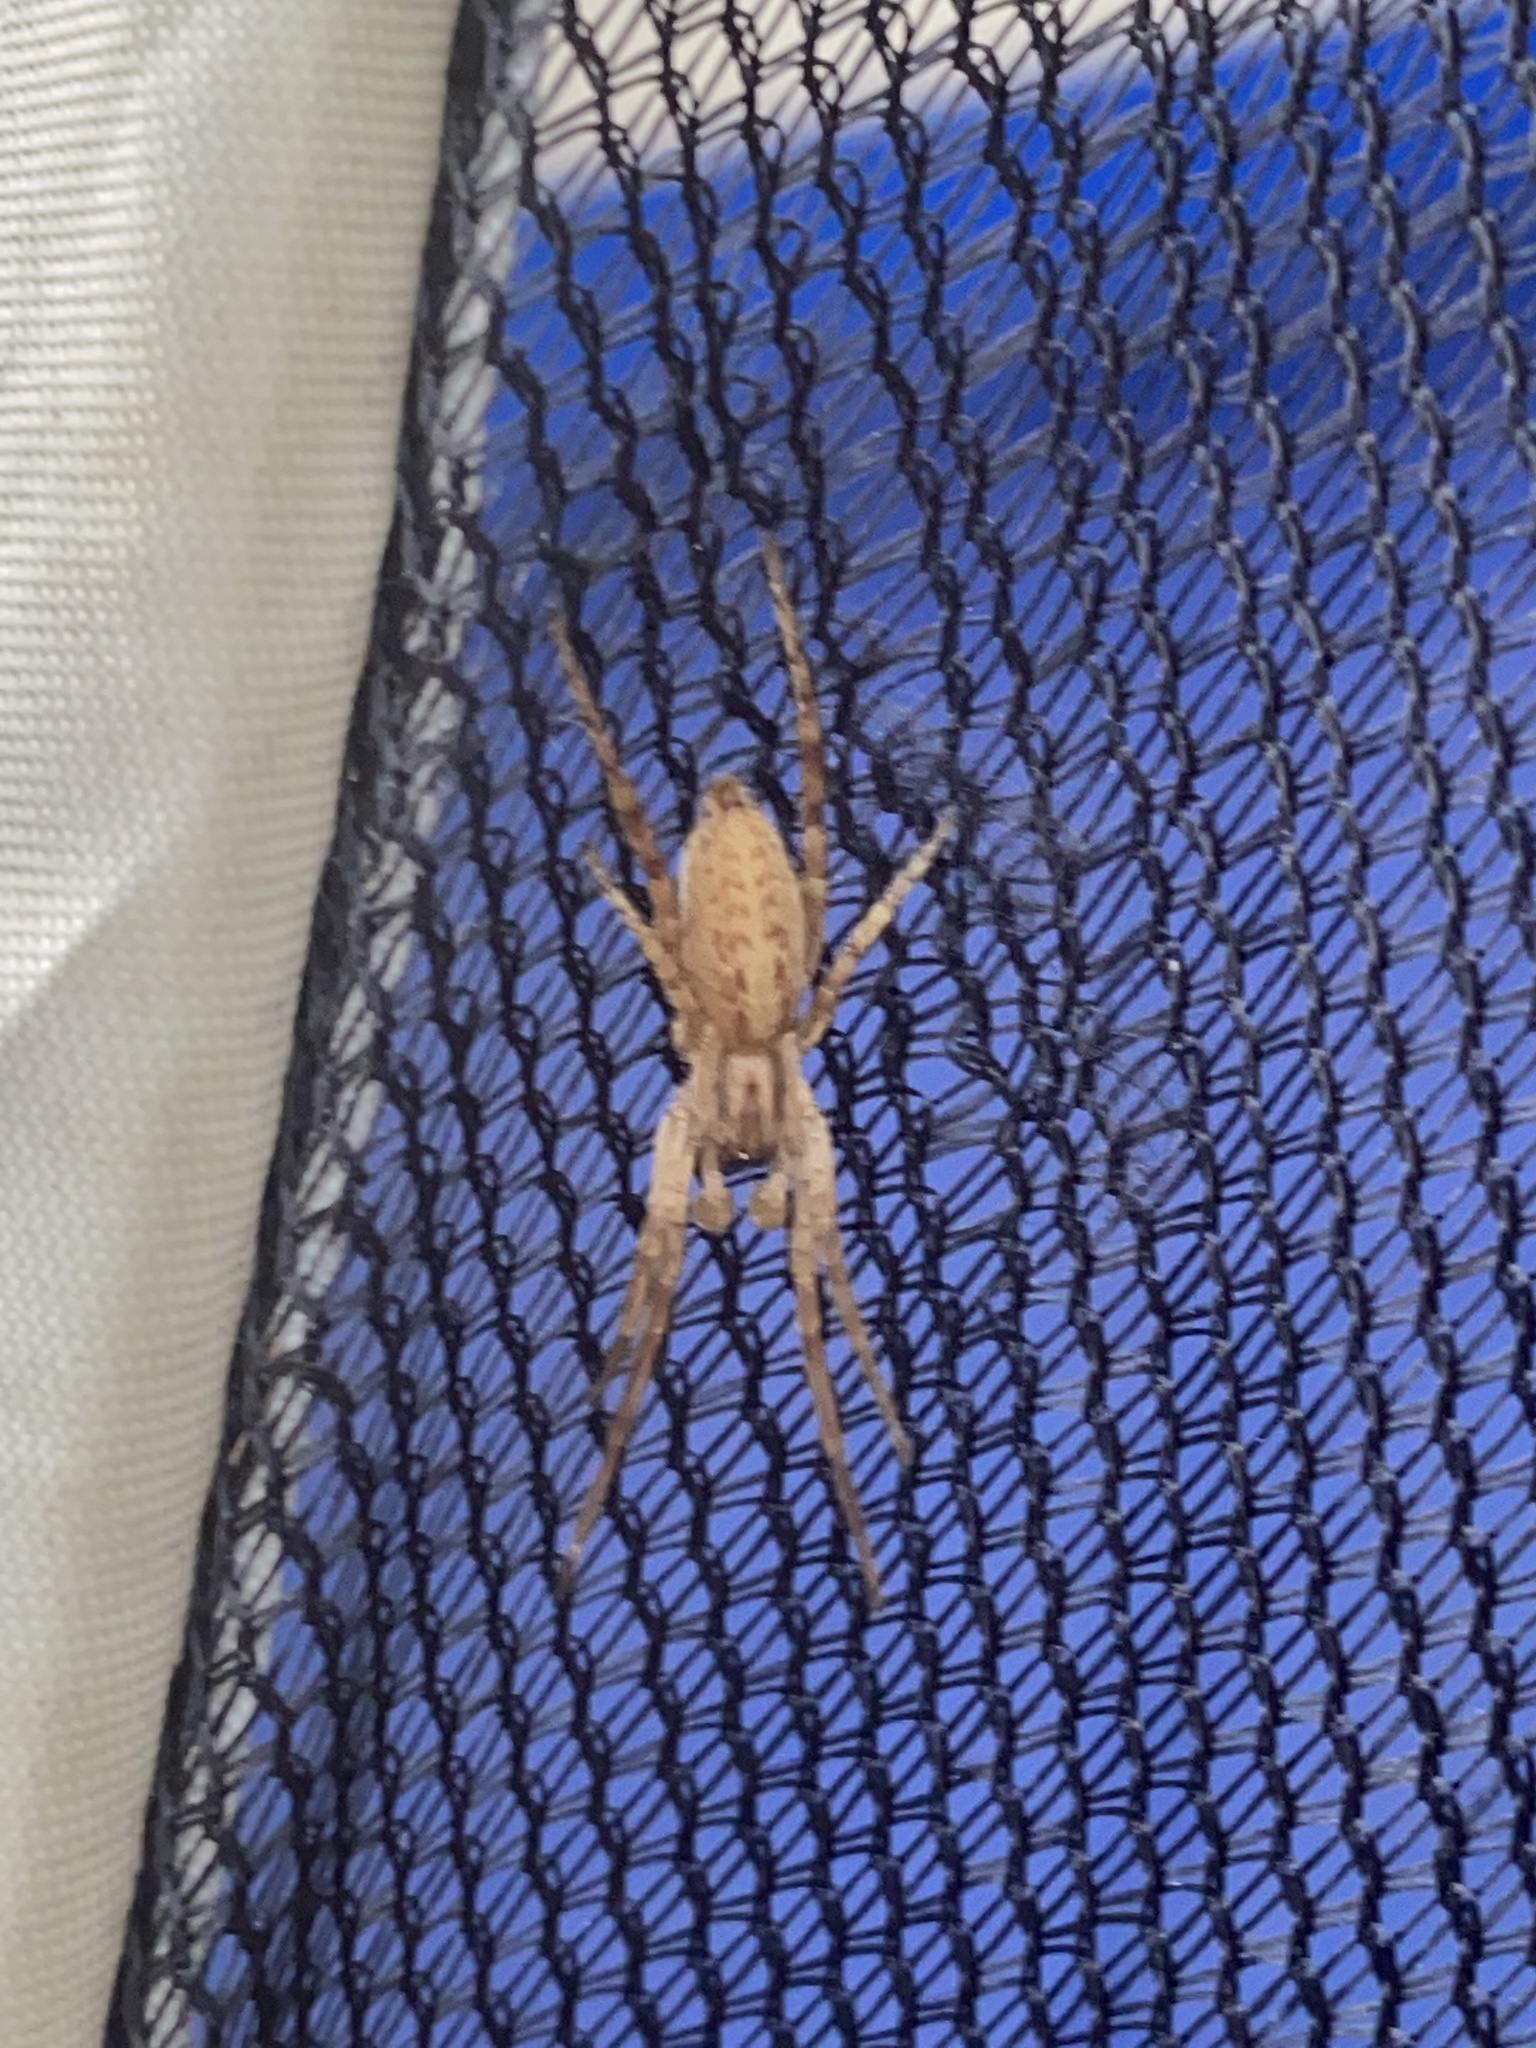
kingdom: Animalia
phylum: Arthropoda
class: Arachnida
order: Araneae
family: Anyphaenidae
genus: Hibana
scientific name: Hibana gracilis
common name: Garden ghost spider
